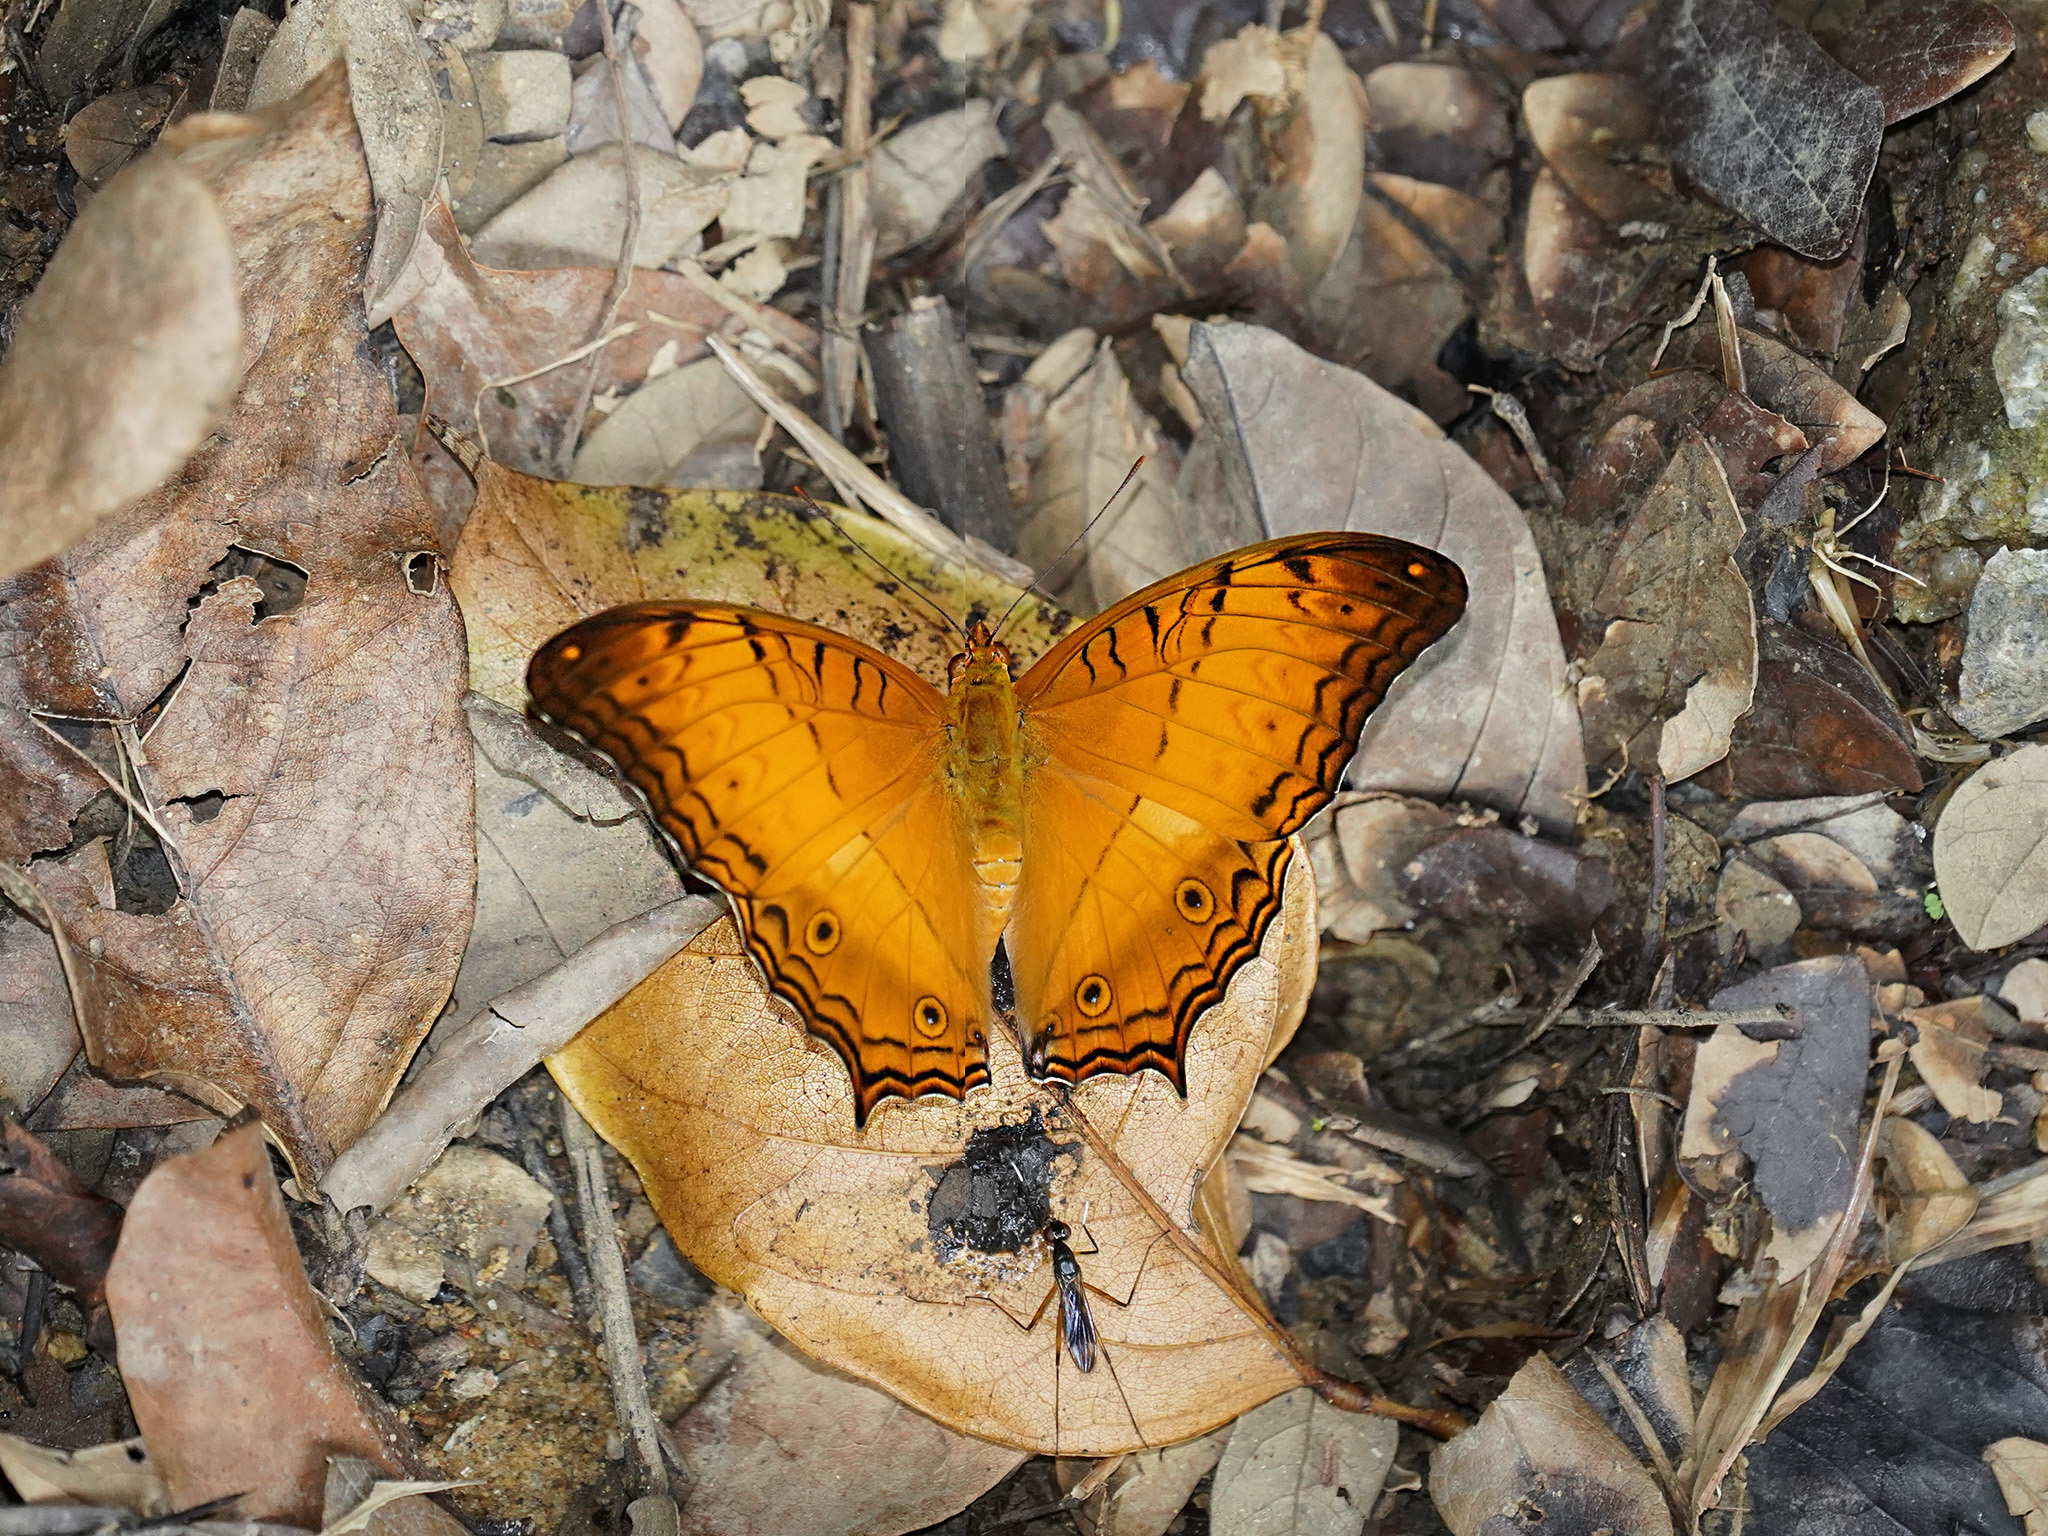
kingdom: Animalia
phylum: Arthropoda
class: Insecta
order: Lepidoptera
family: Nymphalidae
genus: Vindula
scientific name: Vindula deione
